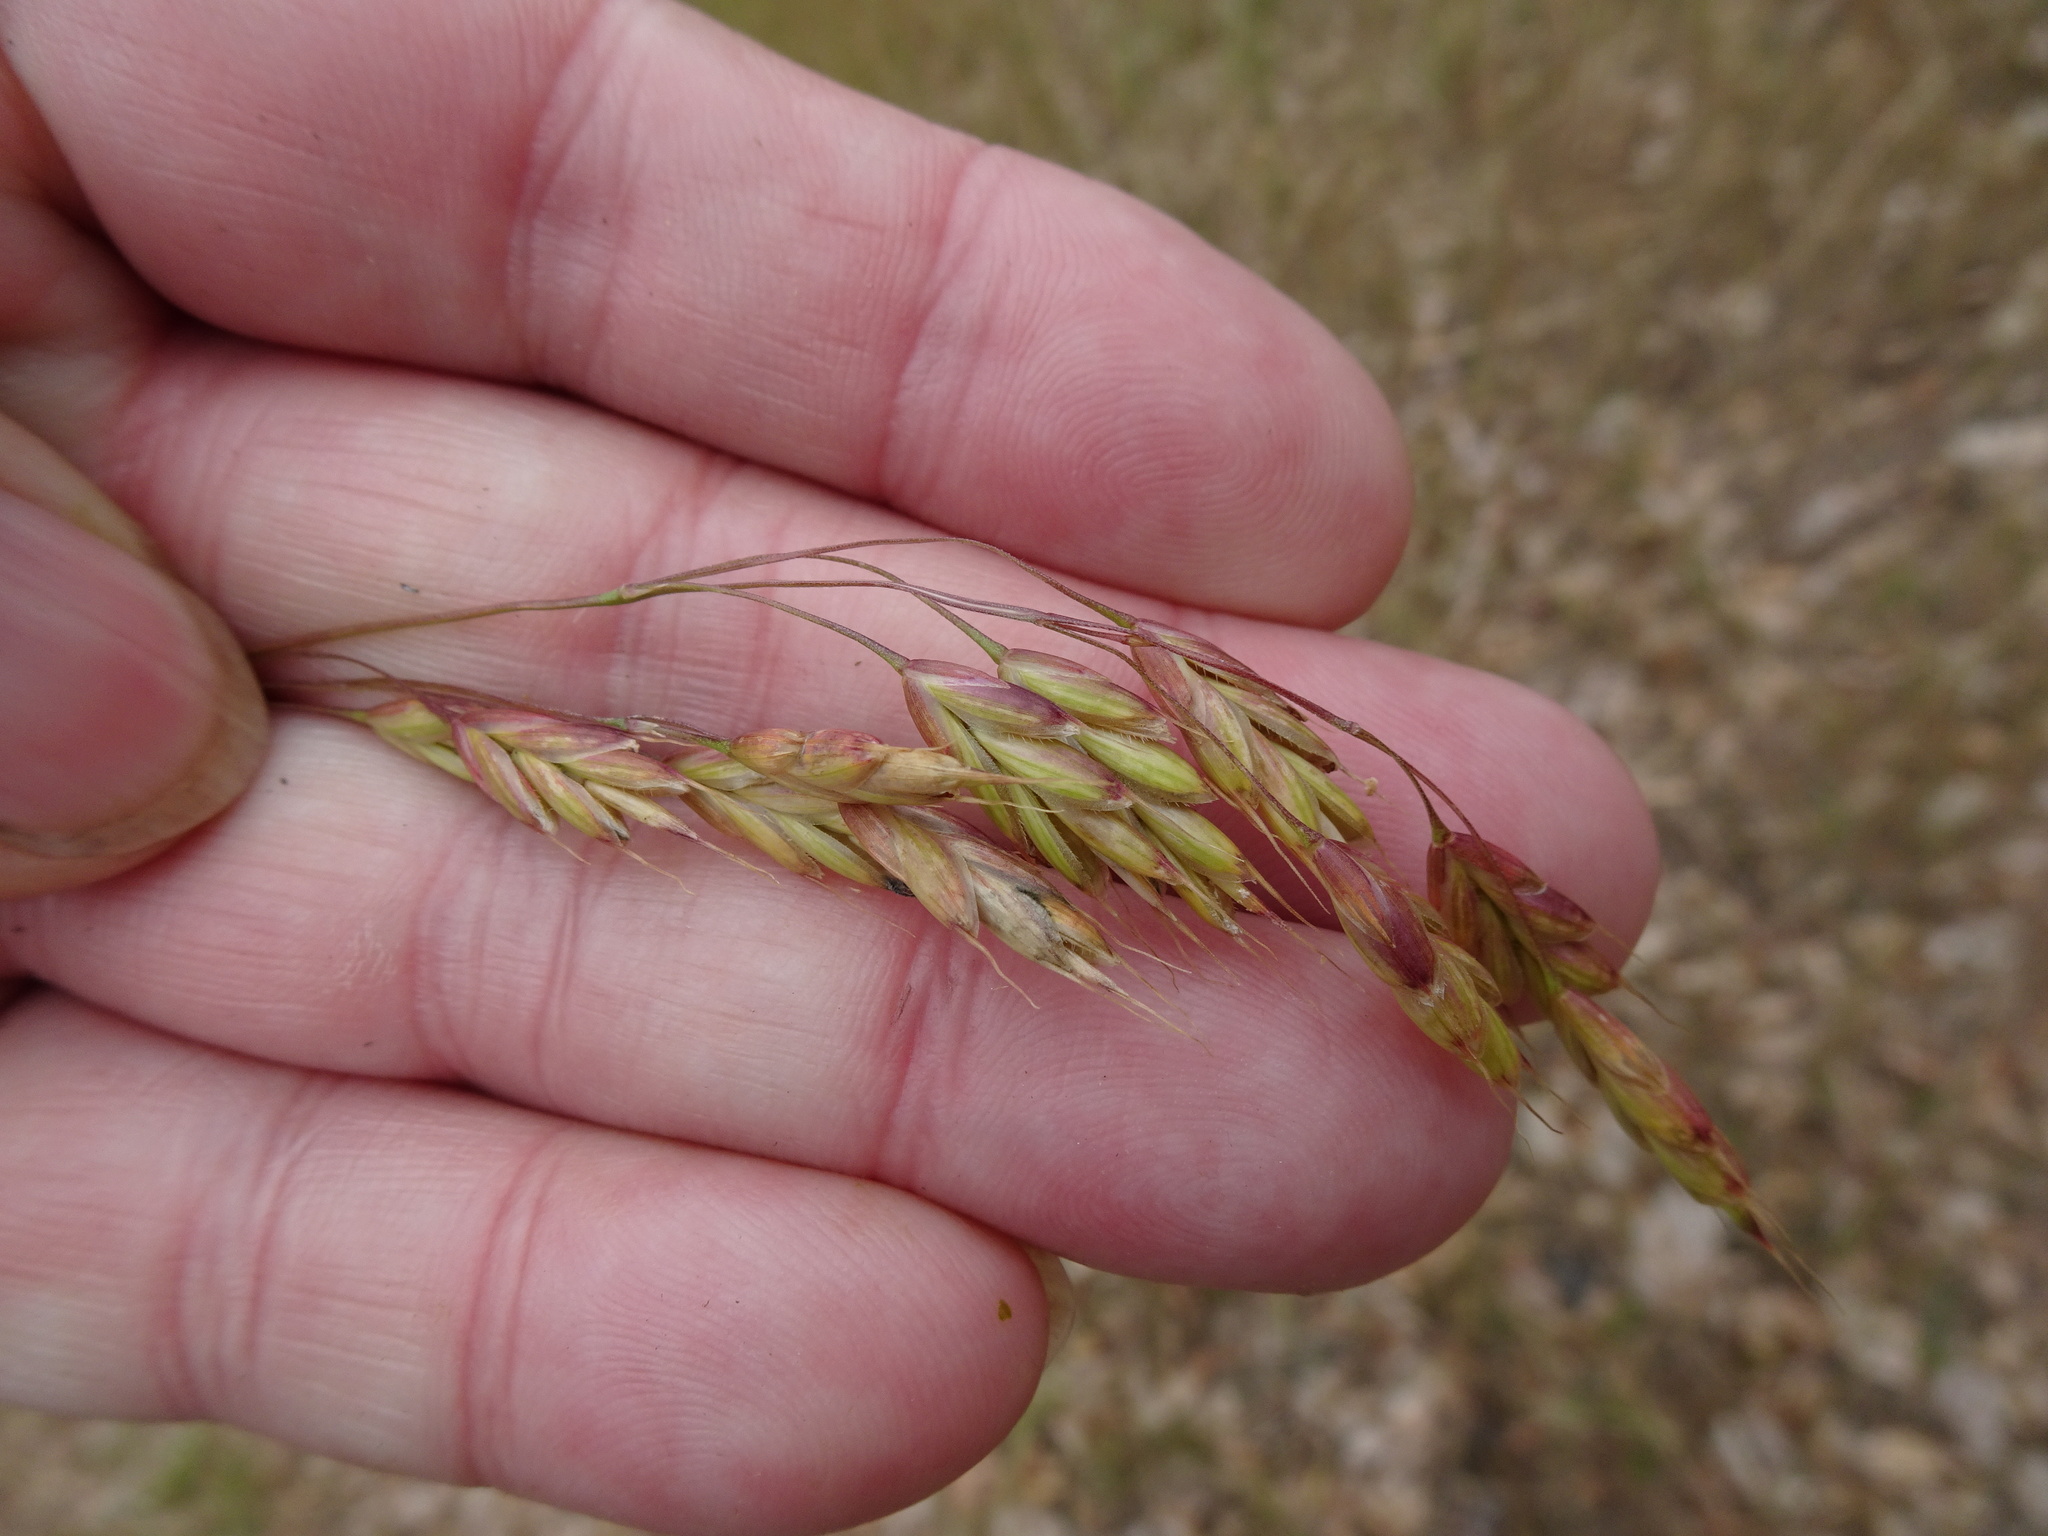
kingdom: Plantae
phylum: Tracheophyta
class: Liliopsida
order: Poales
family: Poaceae
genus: Bromus
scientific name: Bromus secalinus
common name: Rye brome
